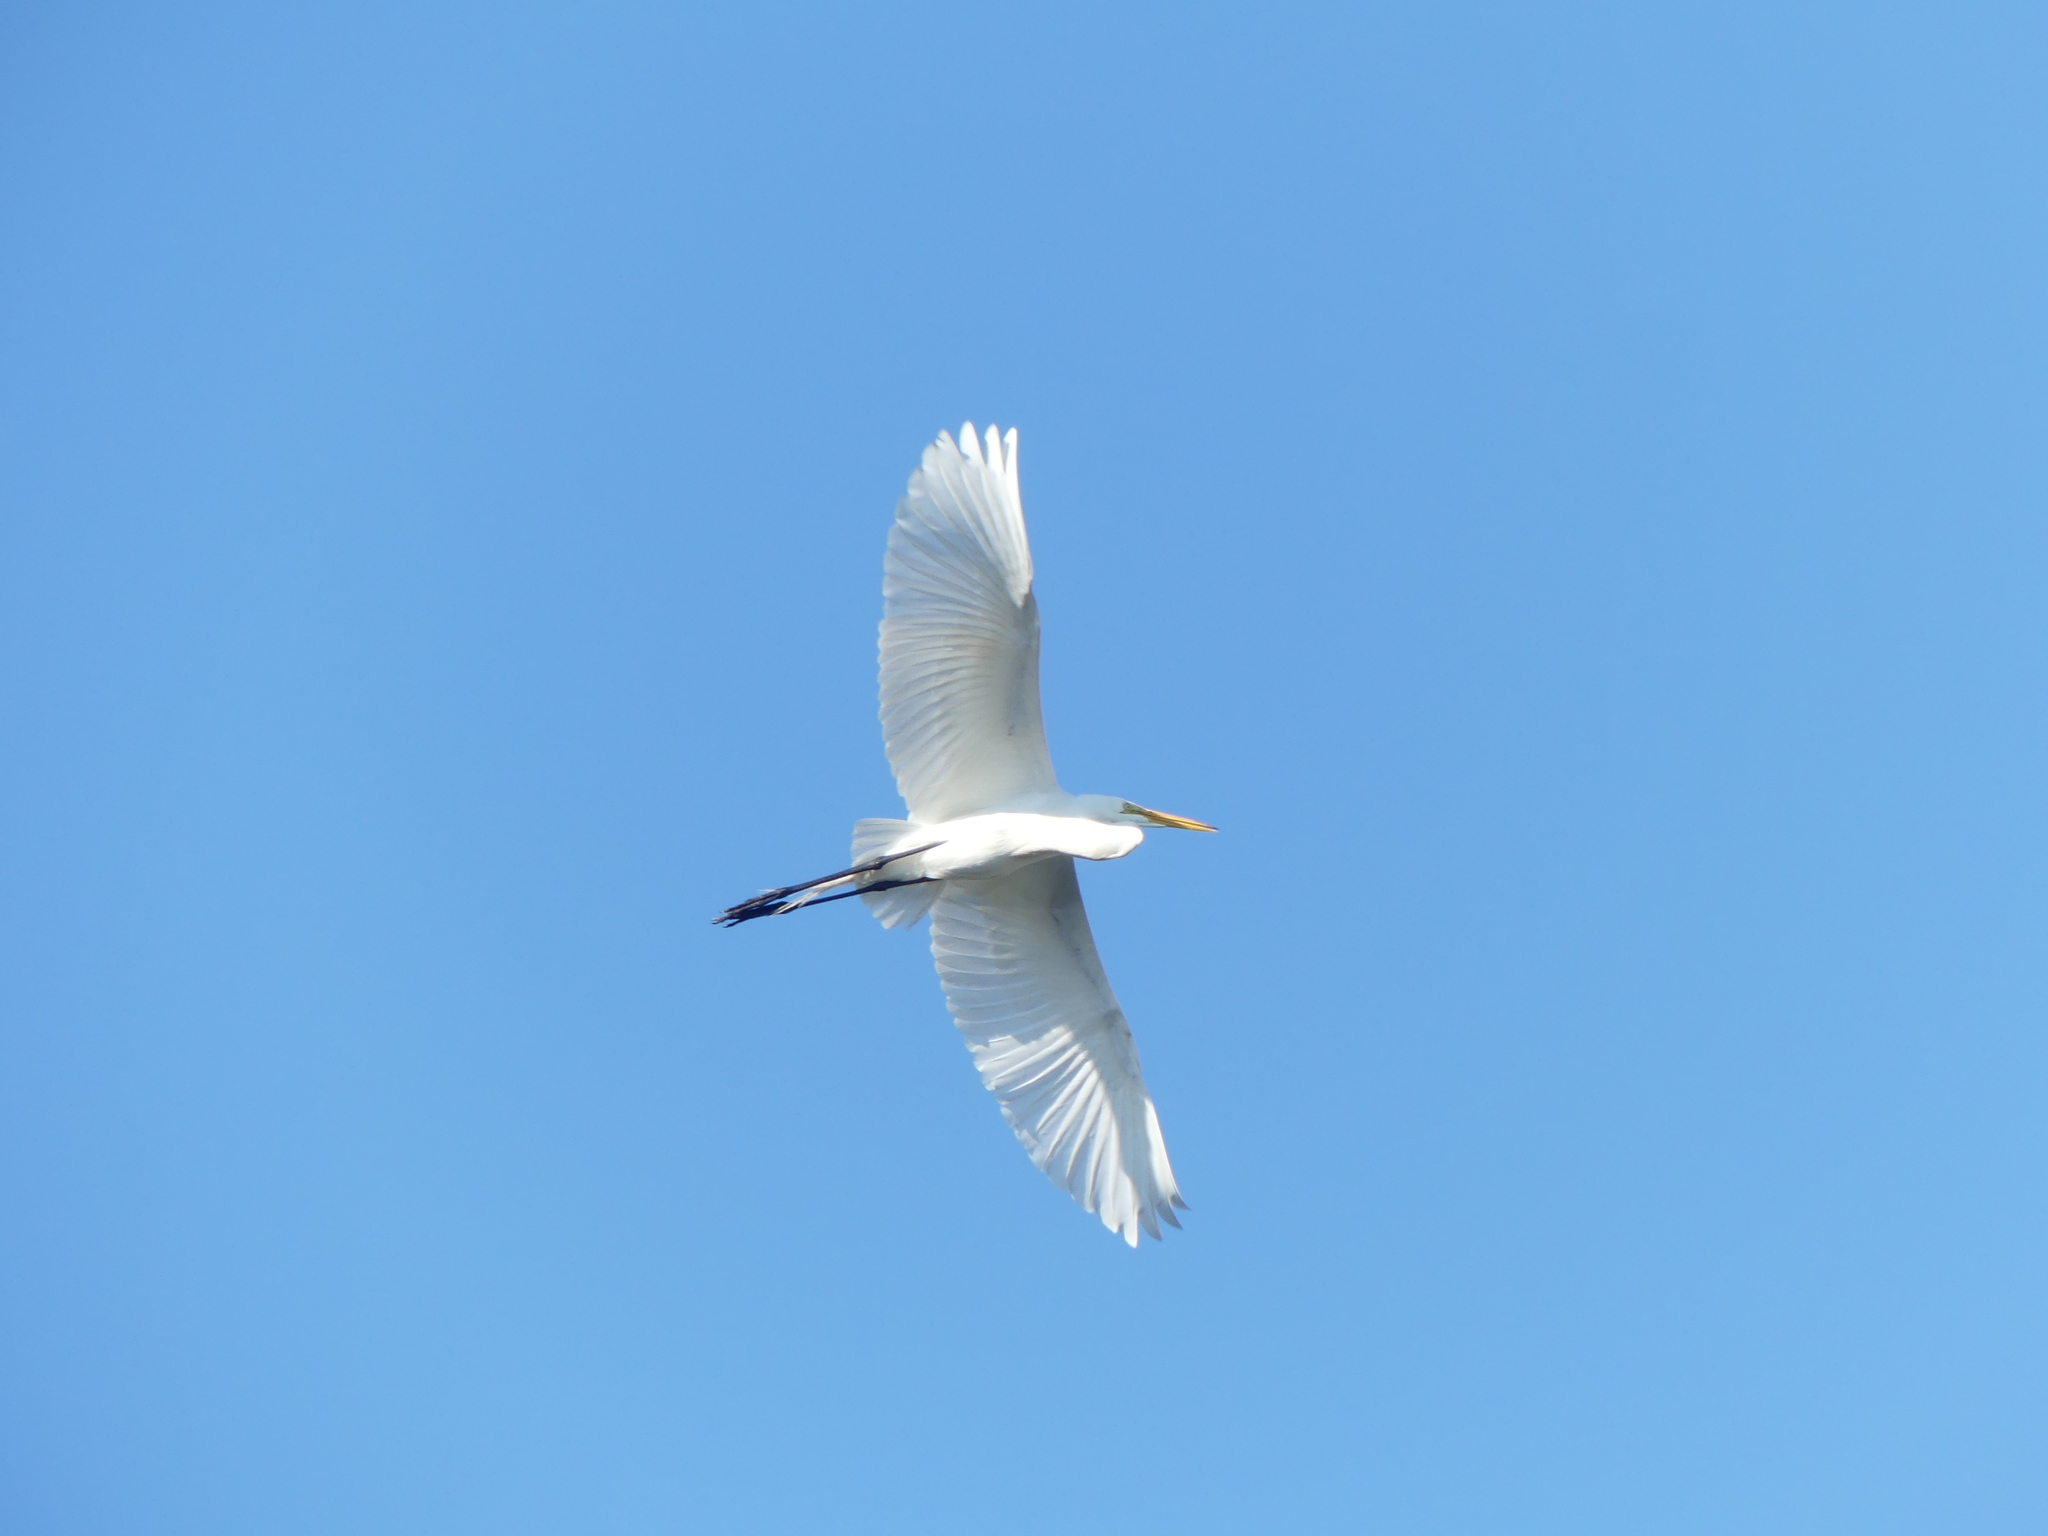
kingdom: Animalia
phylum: Chordata
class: Aves
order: Pelecaniformes
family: Ardeidae
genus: Ardea
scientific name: Ardea alba
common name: Great egret
